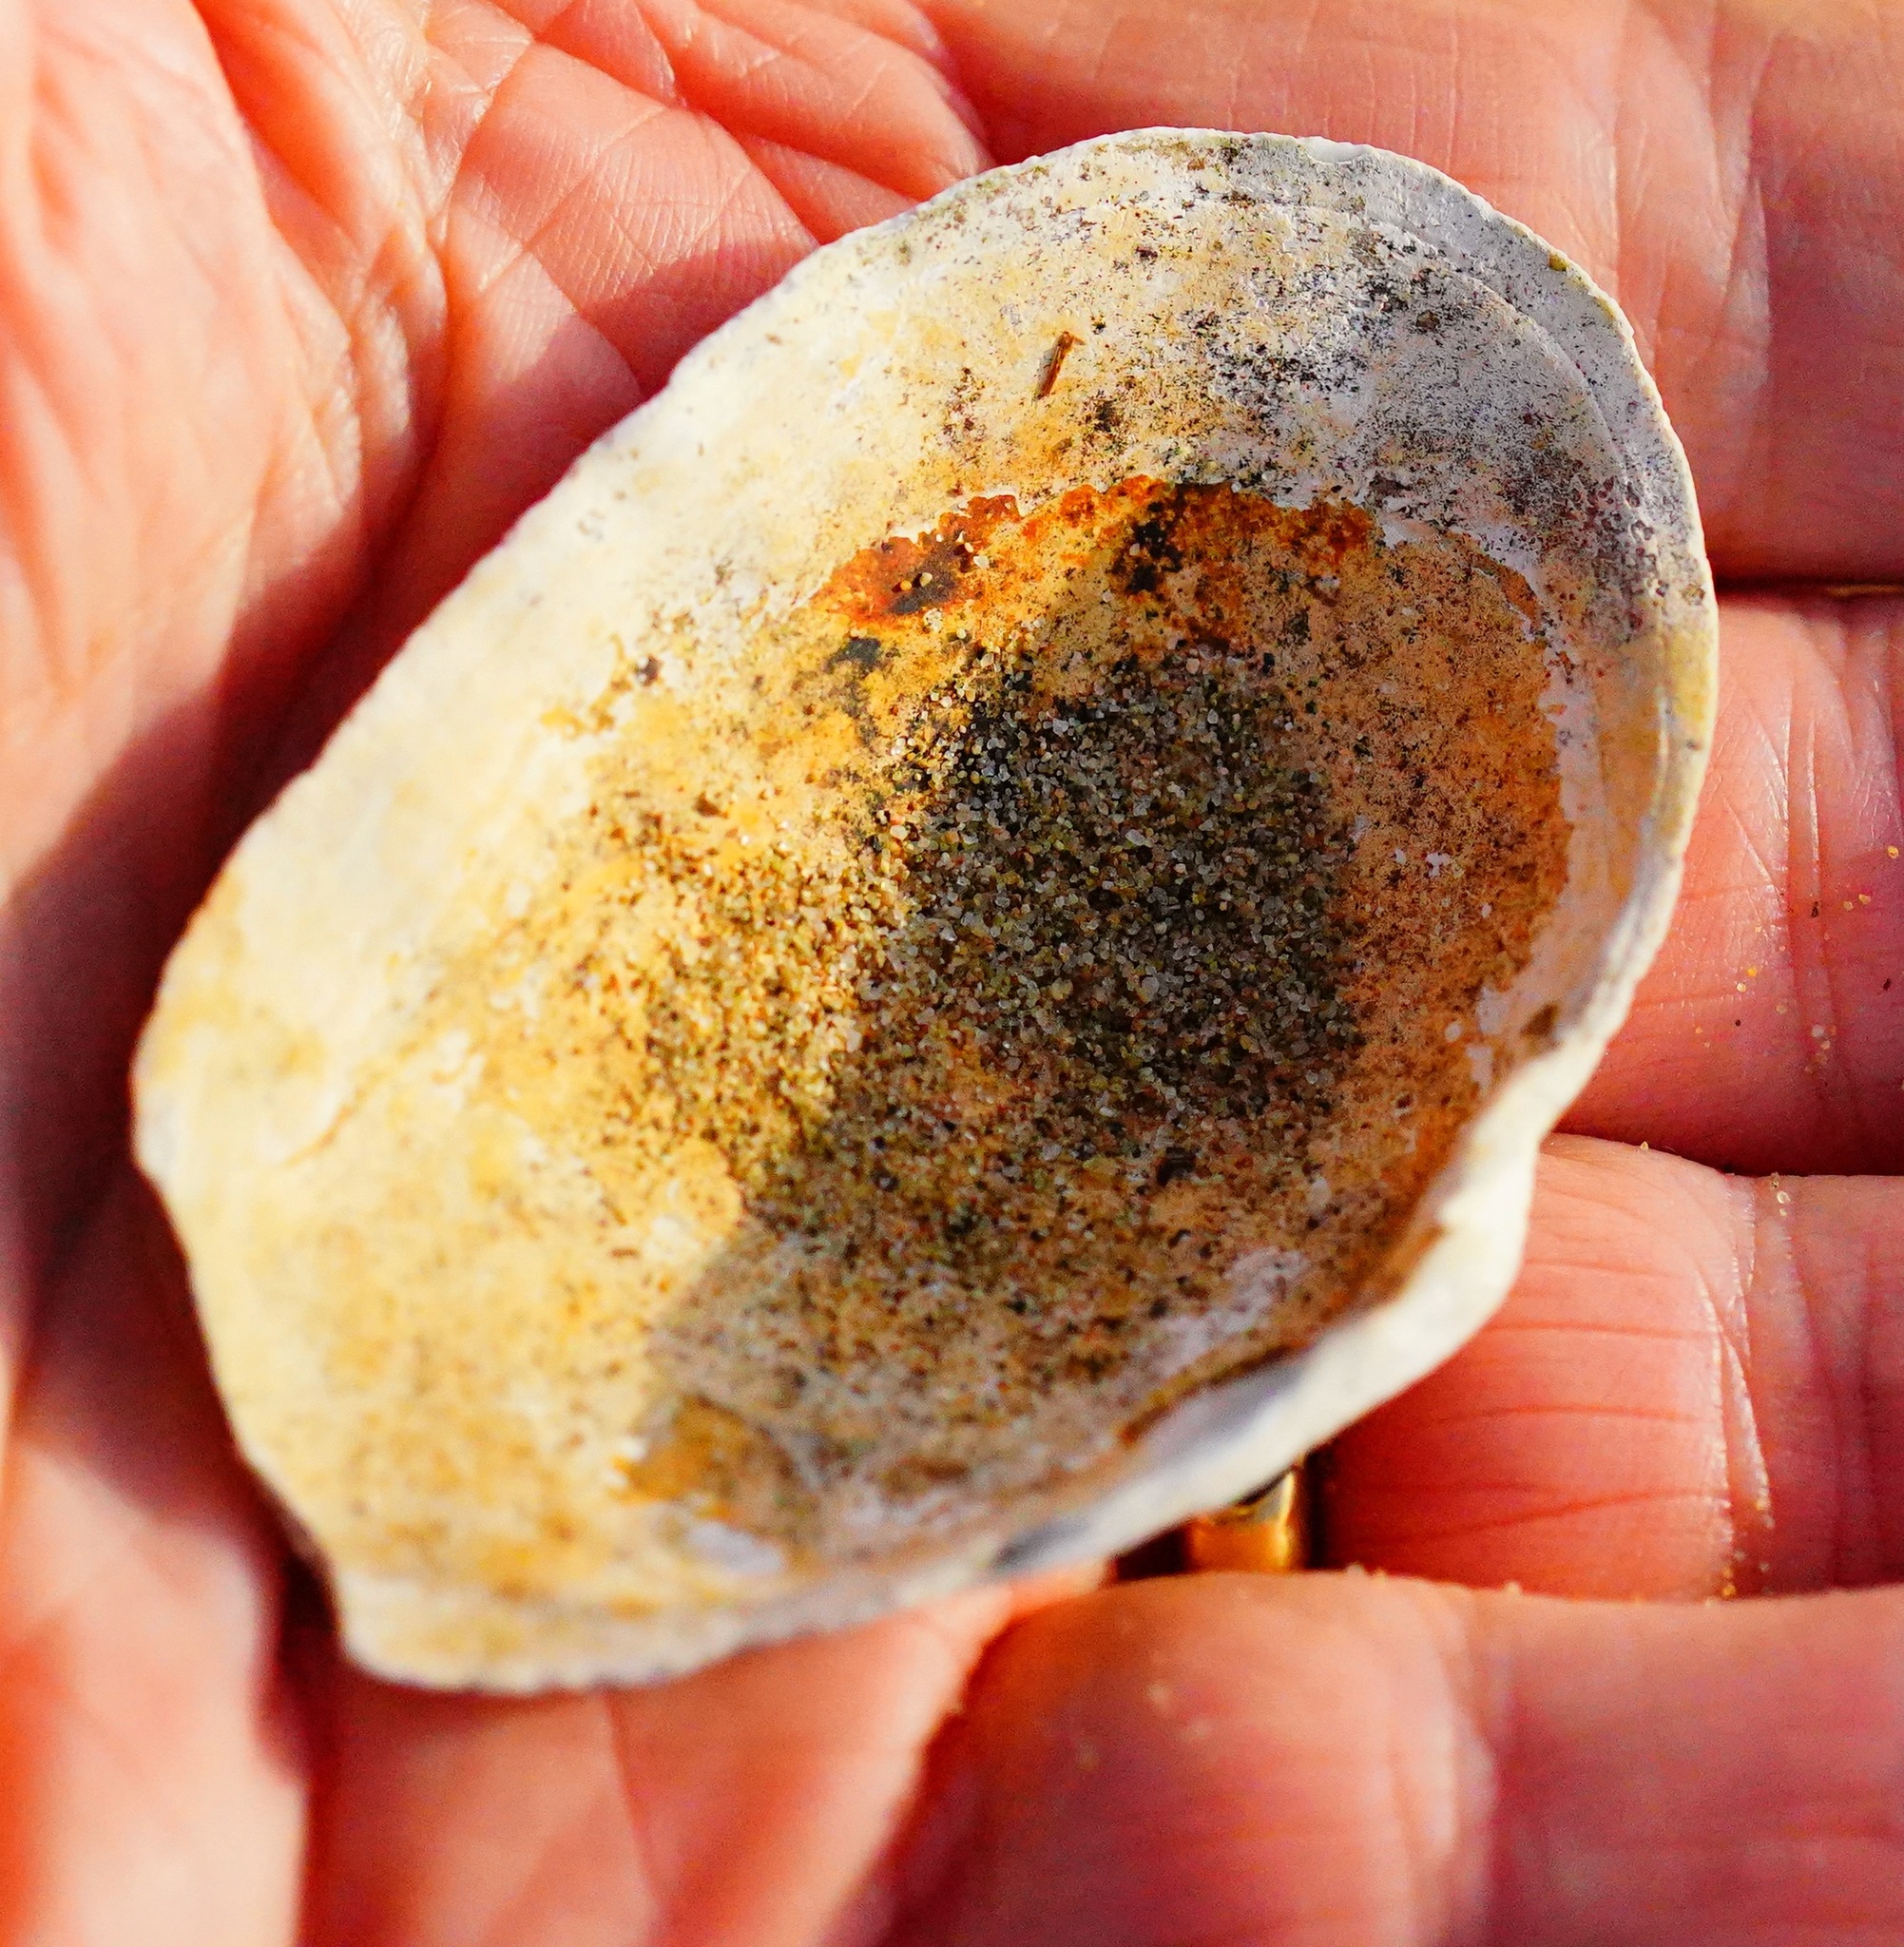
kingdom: Animalia
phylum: Mollusca
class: Bivalvia
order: Myida
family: Myidae
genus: Mya
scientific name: Mya arenaria
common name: Soft-shelled clam
